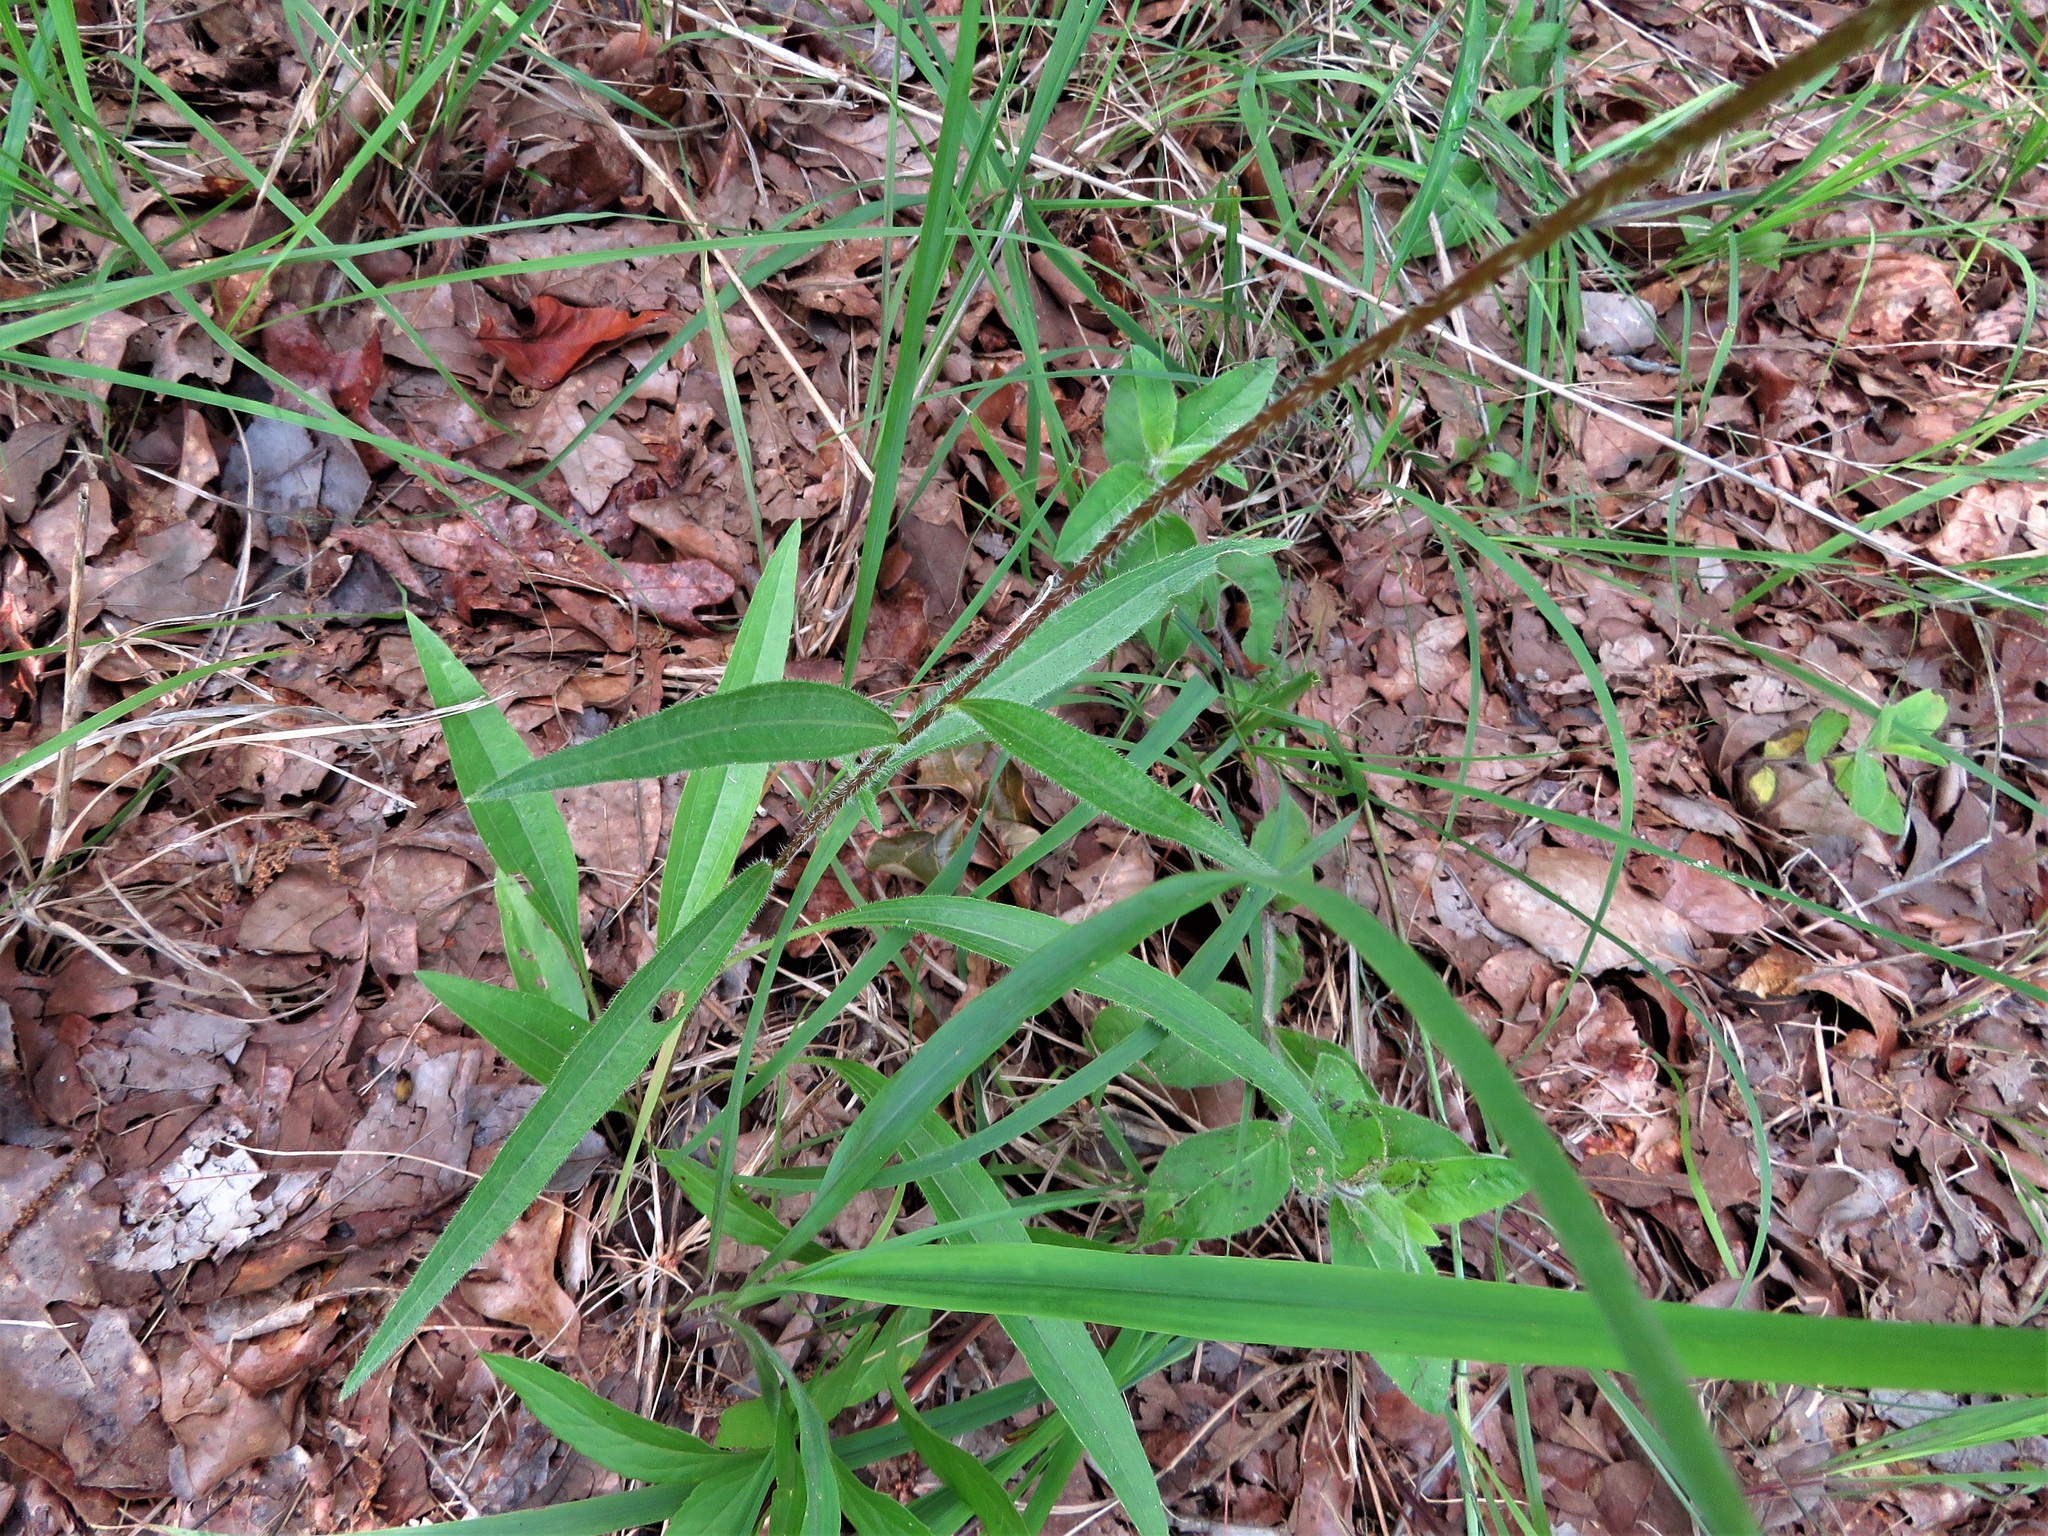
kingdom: Plantae
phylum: Tracheophyta
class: Magnoliopsida
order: Asterales
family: Asteraceae
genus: Echinacea
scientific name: Echinacea sanguinea
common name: Sanguine purple-coneflower
